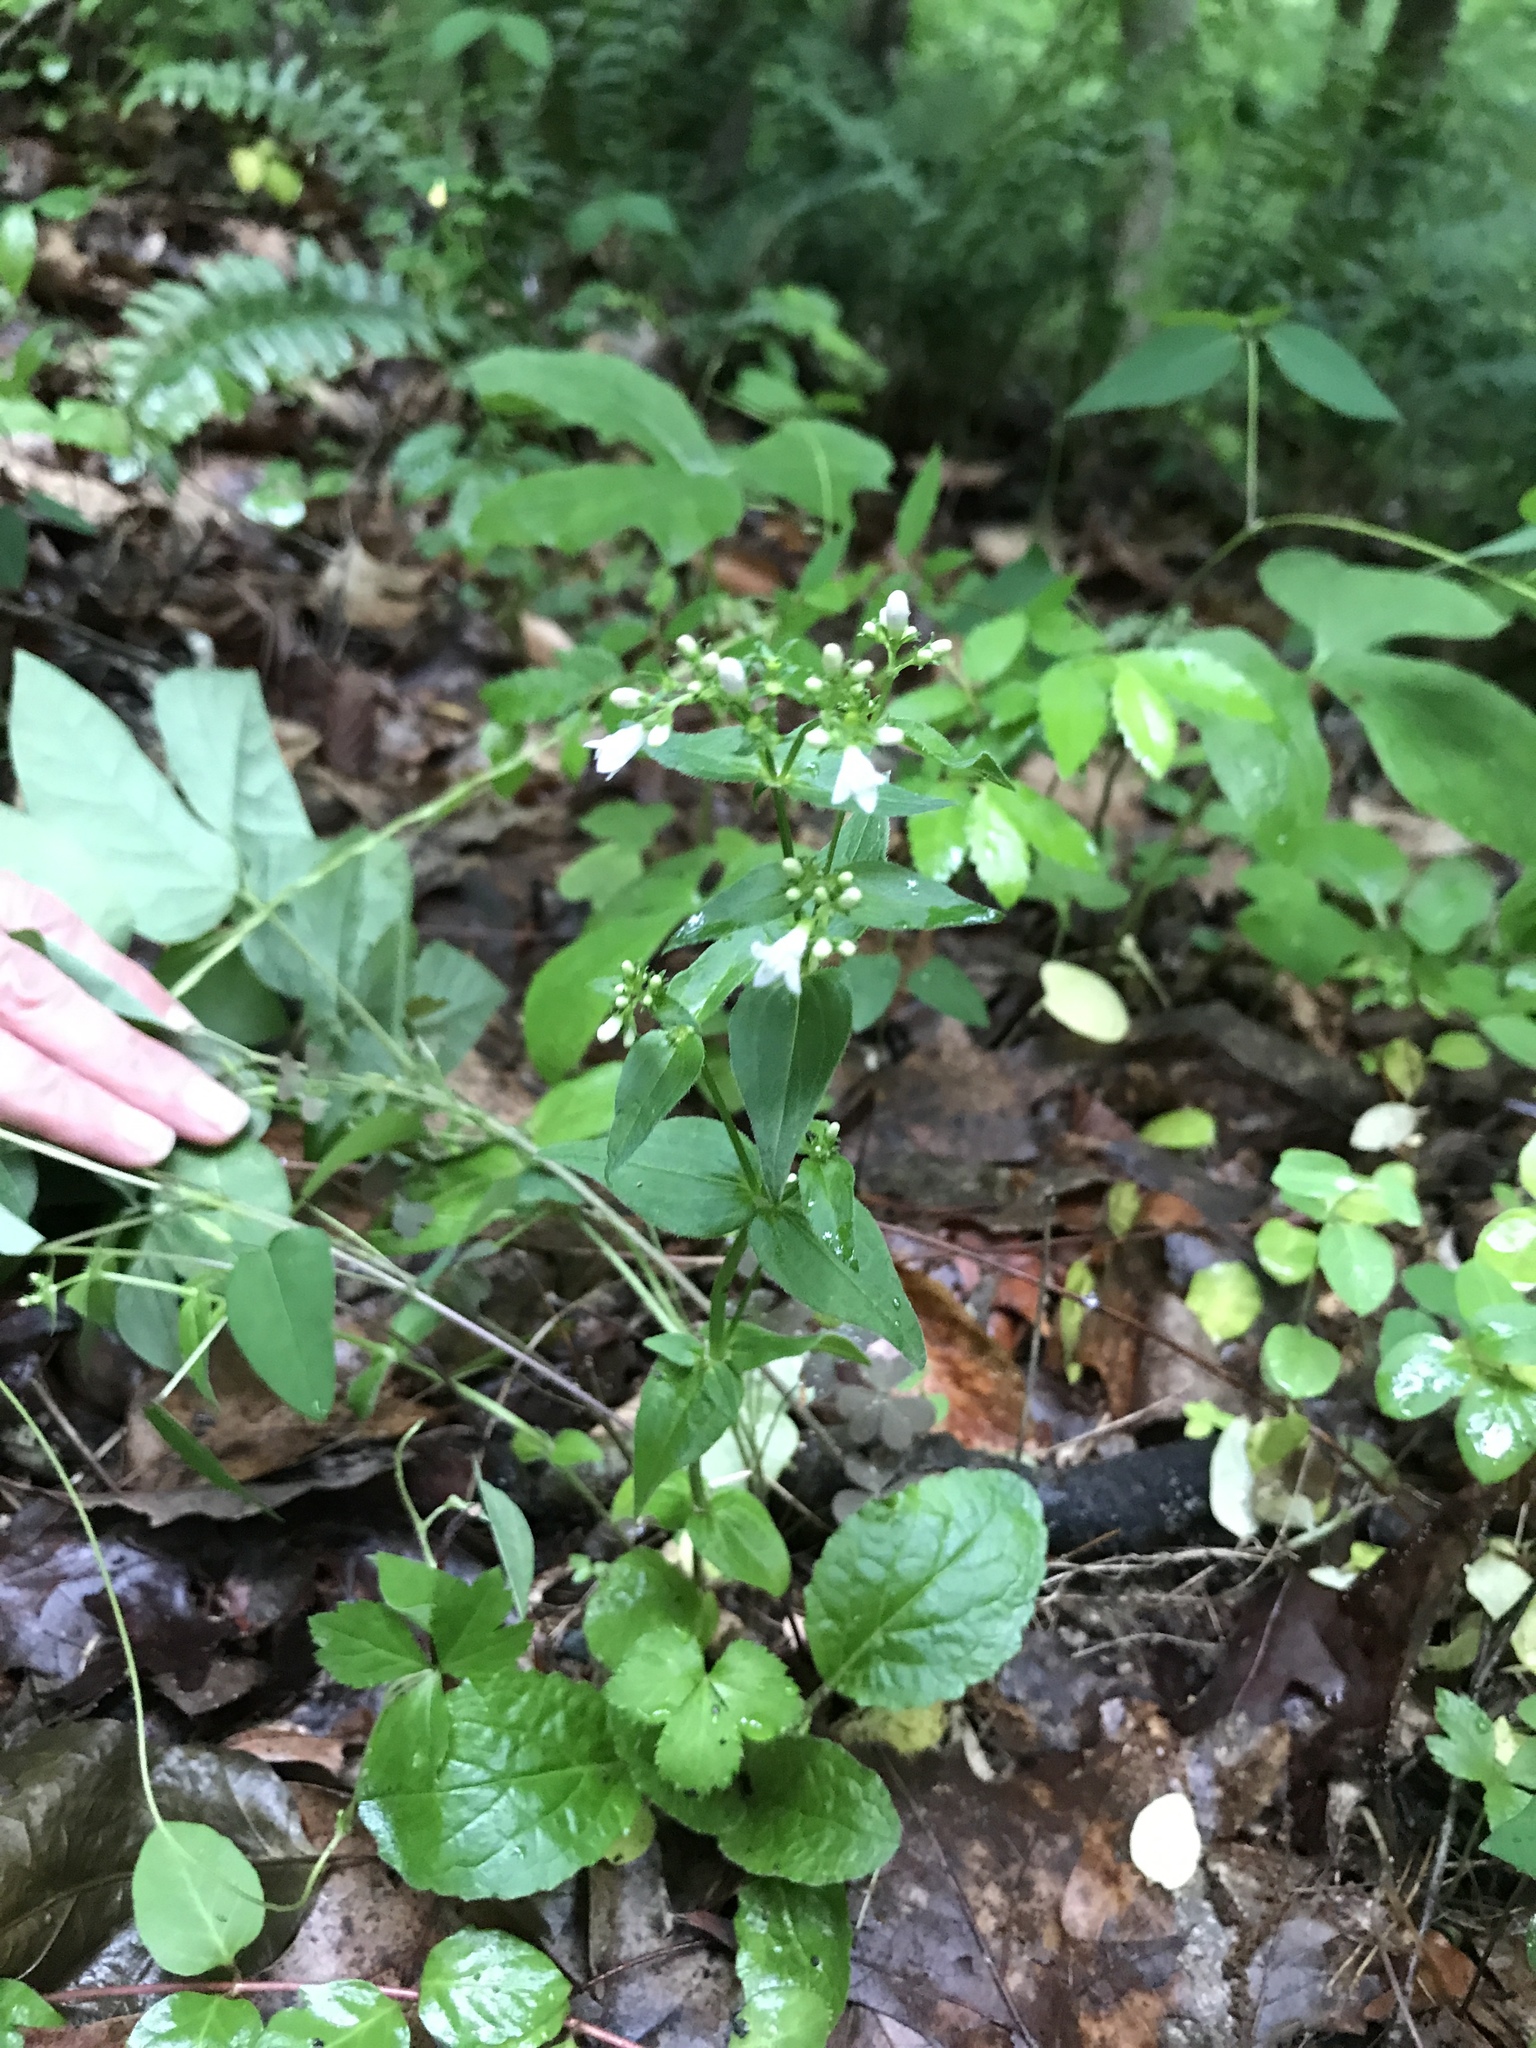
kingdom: Plantae
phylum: Tracheophyta
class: Magnoliopsida
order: Gentianales
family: Rubiaceae
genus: Houstonia
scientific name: Houstonia purpurea
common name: Summer bluet
